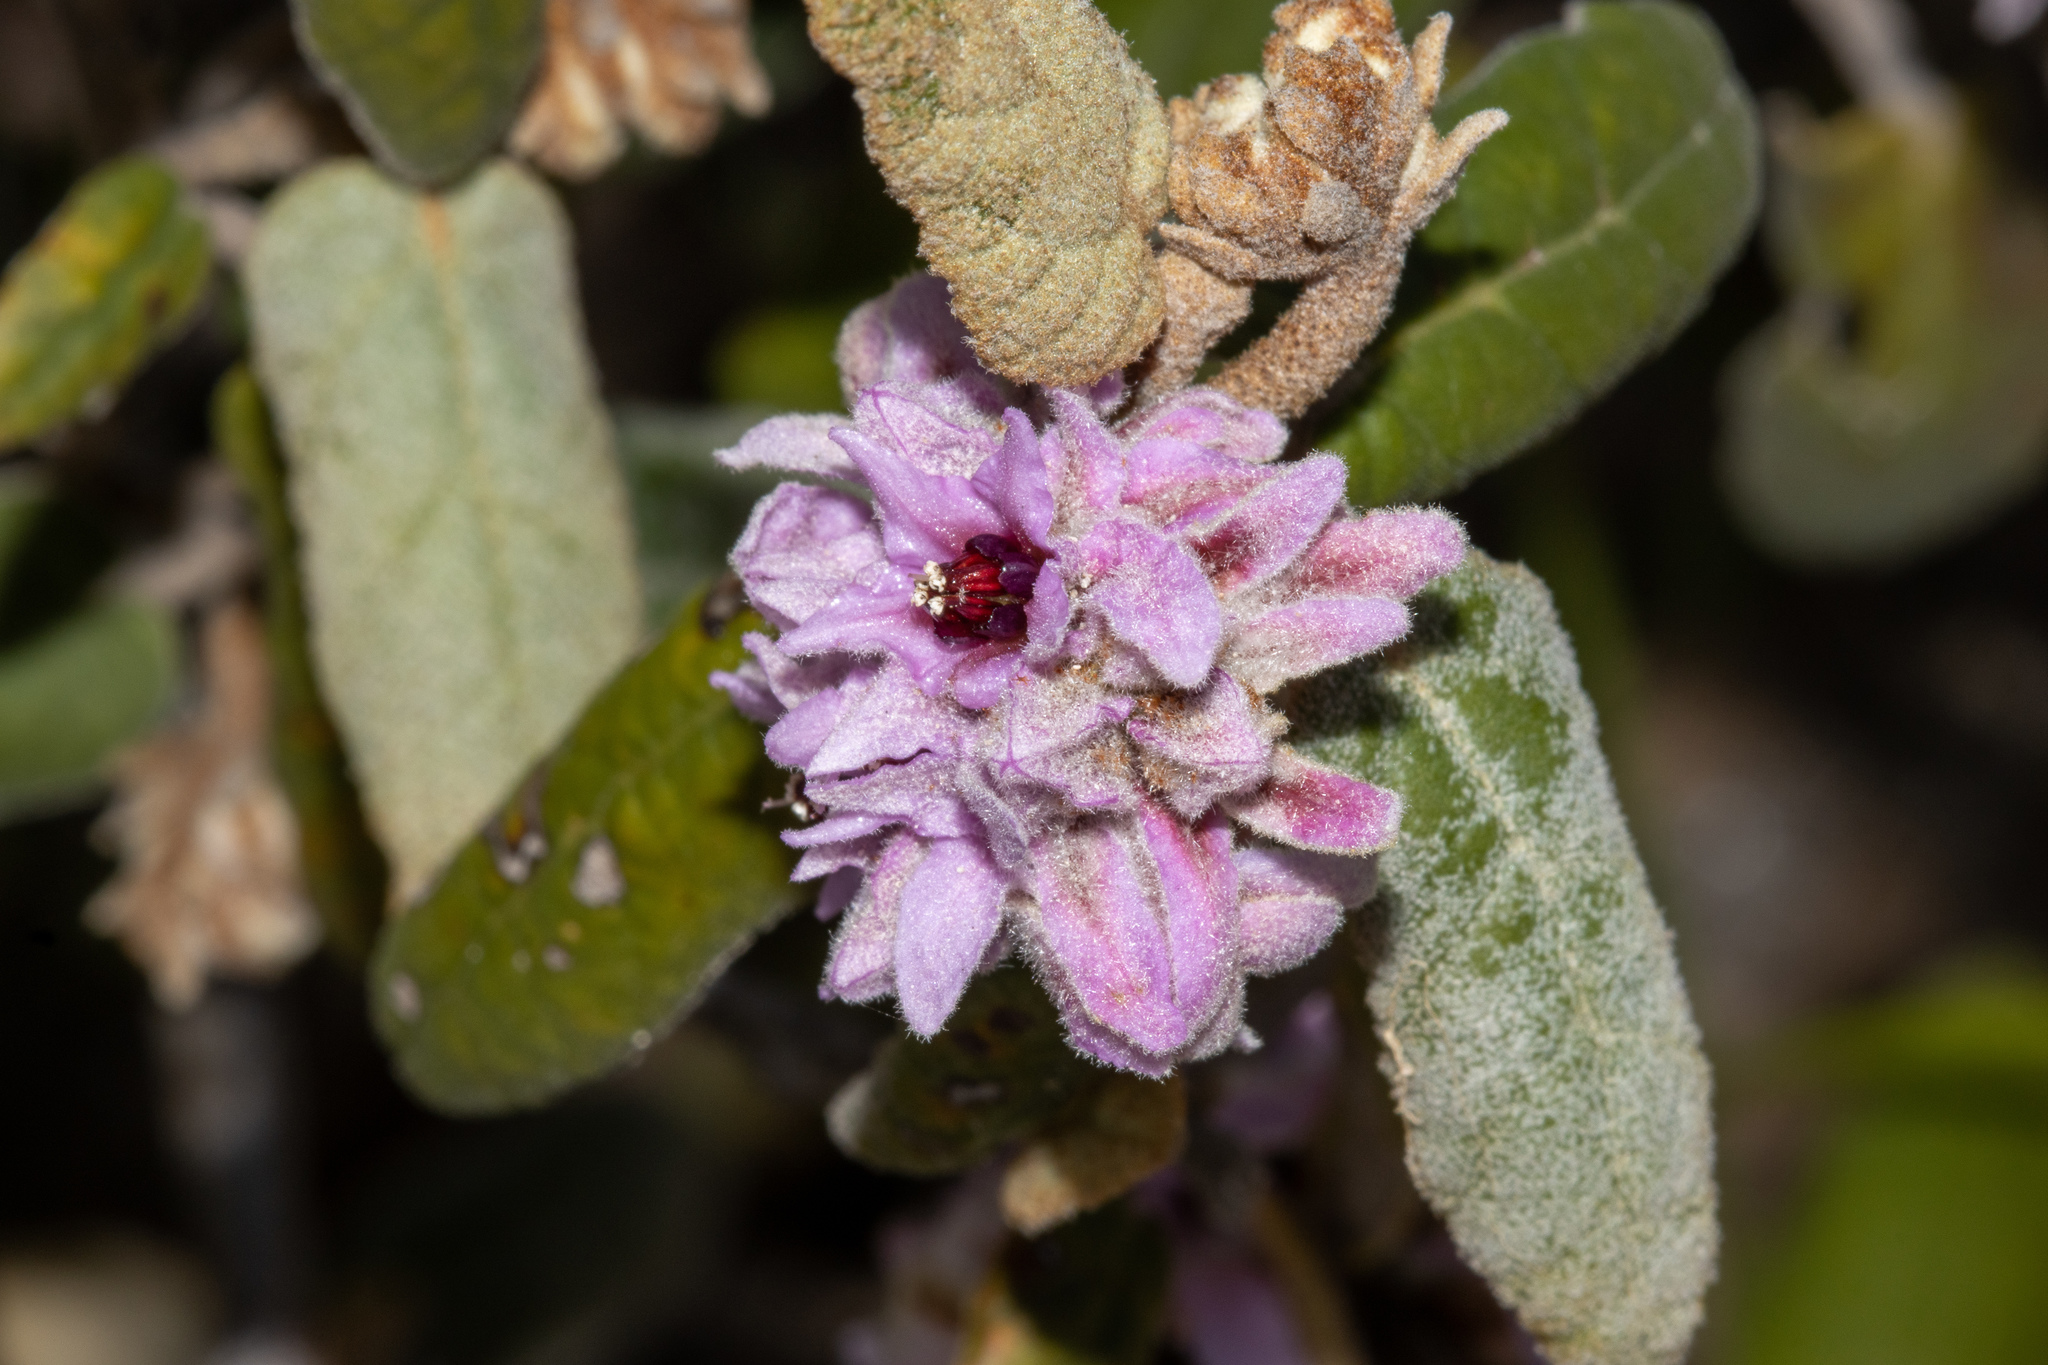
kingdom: Plantae
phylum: Tracheophyta
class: Magnoliopsida
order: Malvales
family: Malvaceae
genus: Lasiopetalum
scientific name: Lasiopetalum discolor
